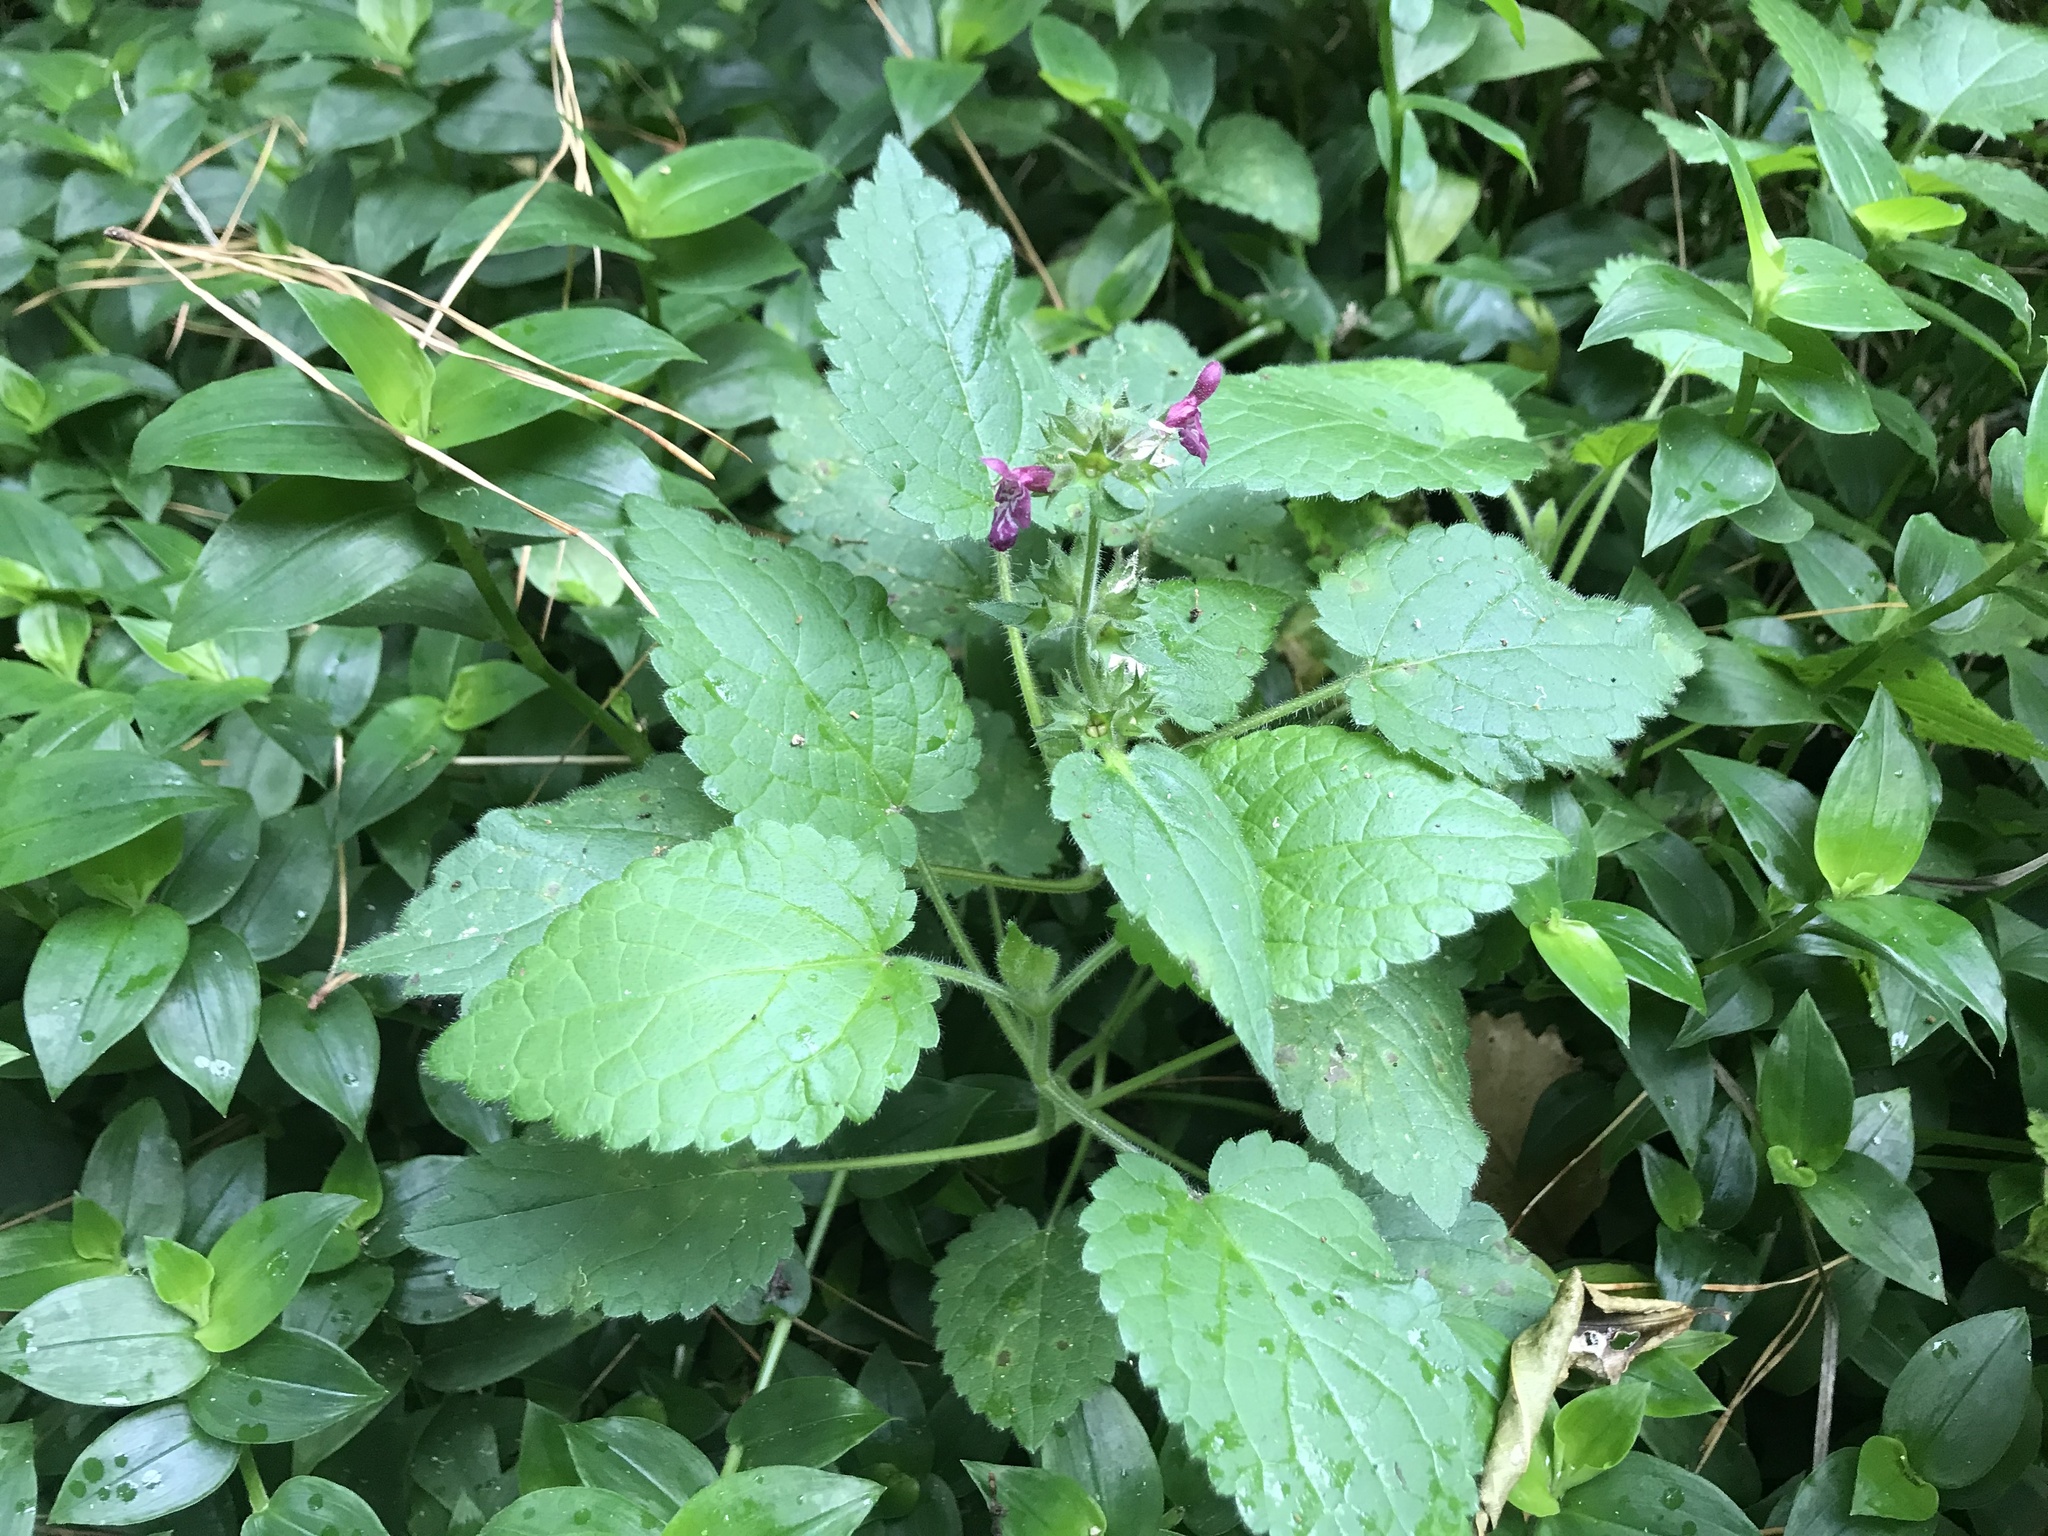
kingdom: Plantae
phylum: Tracheophyta
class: Magnoliopsida
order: Lamiales
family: Lamiaceae
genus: Stachys
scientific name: Stachys sylvatica
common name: Hedge woundwort
